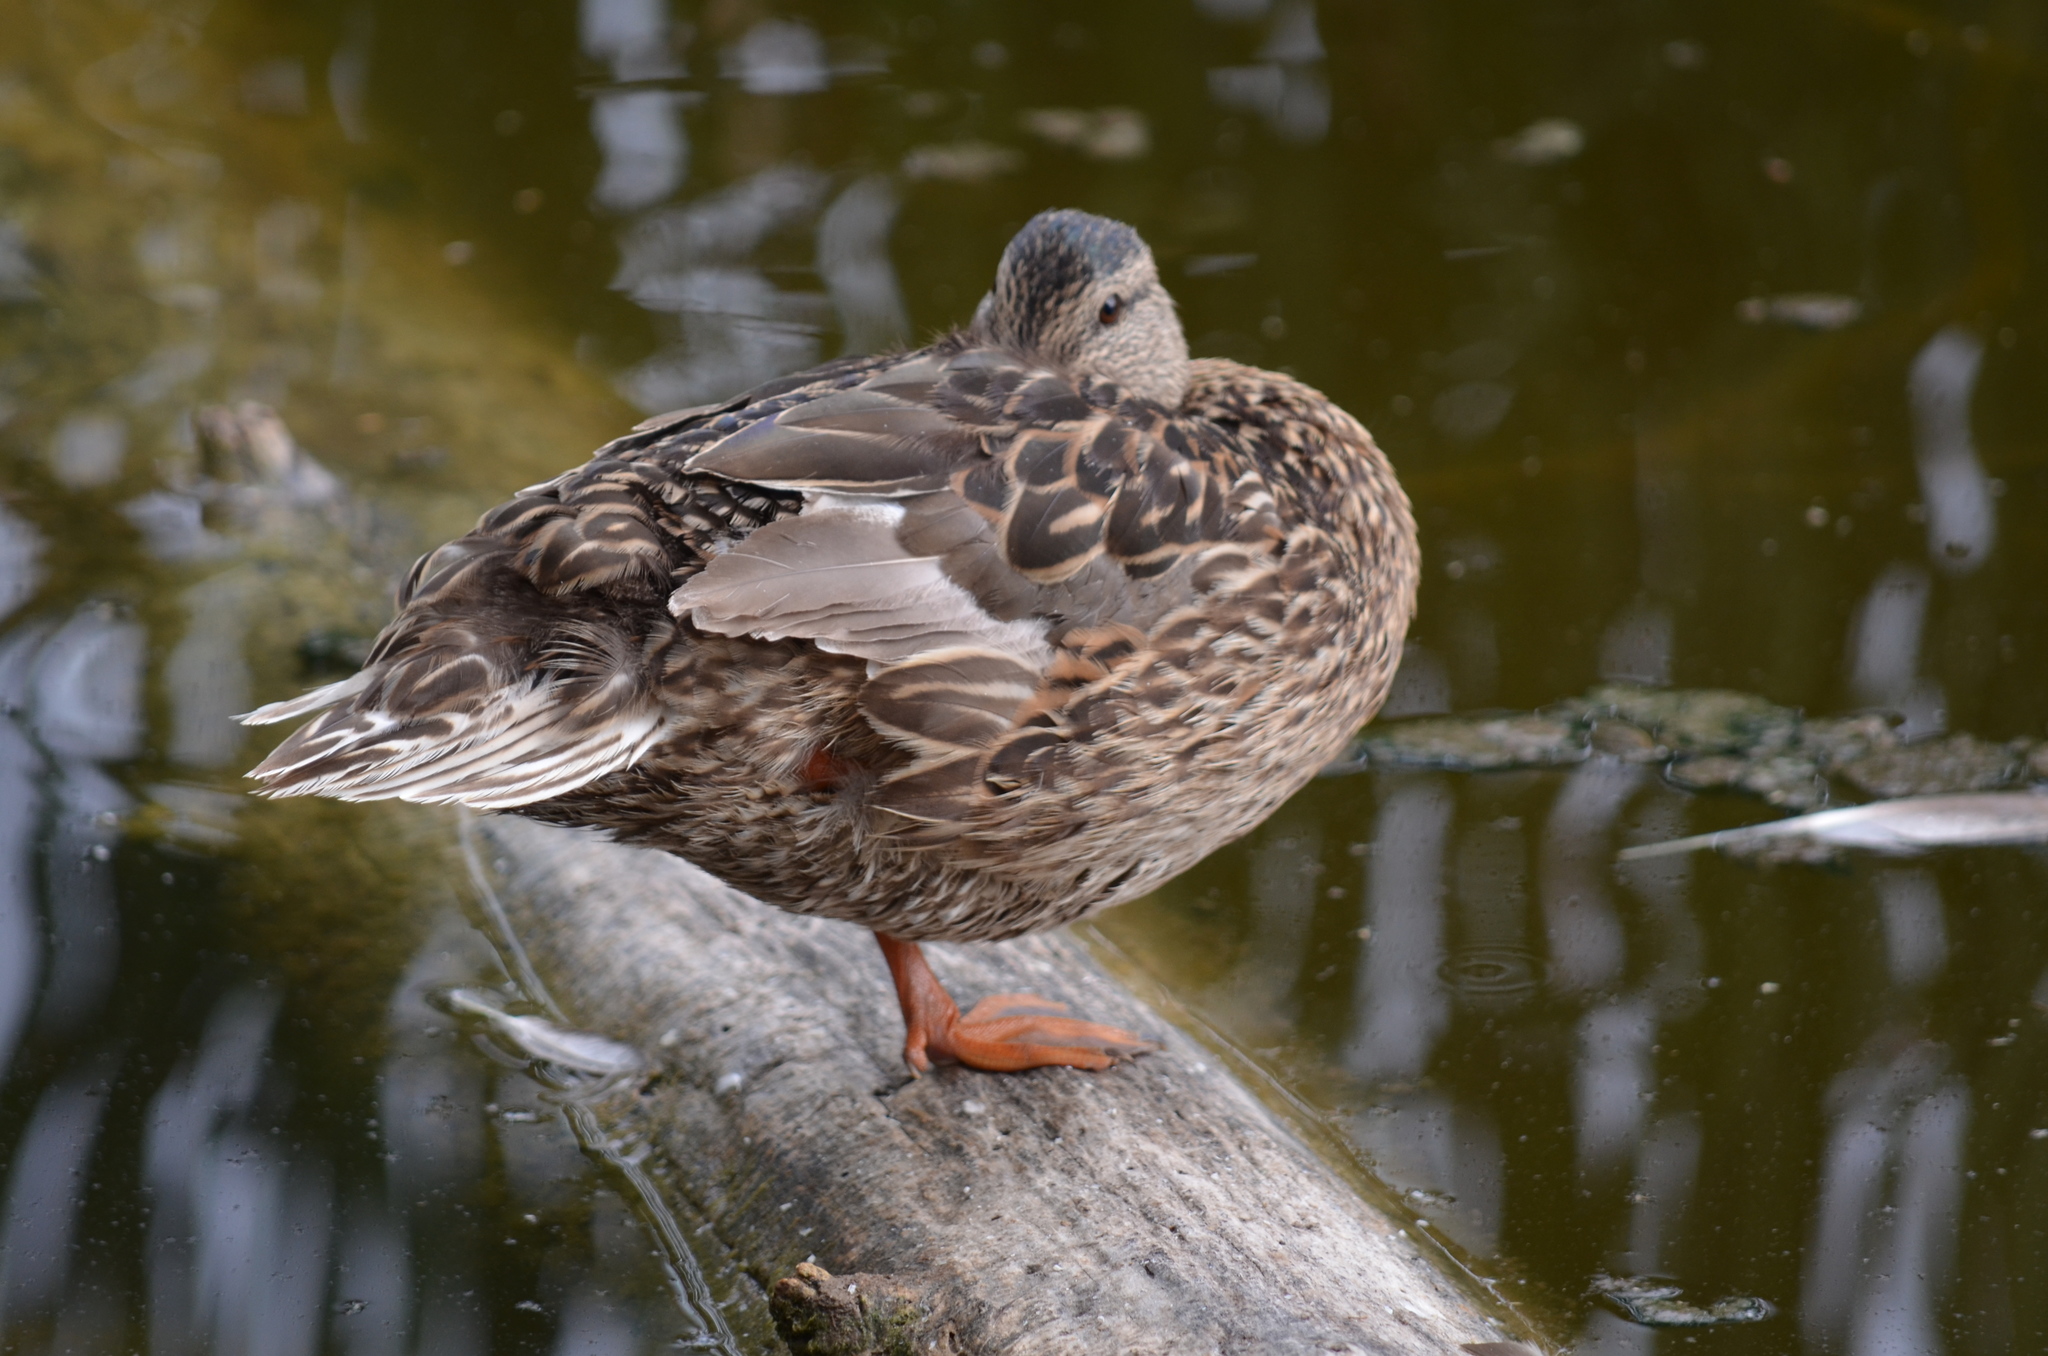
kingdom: Animalia
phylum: Chordata
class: Aves
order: Anseriformes
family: Anatidae
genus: Anas
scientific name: Anas platyrhynchos
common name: Mallard
